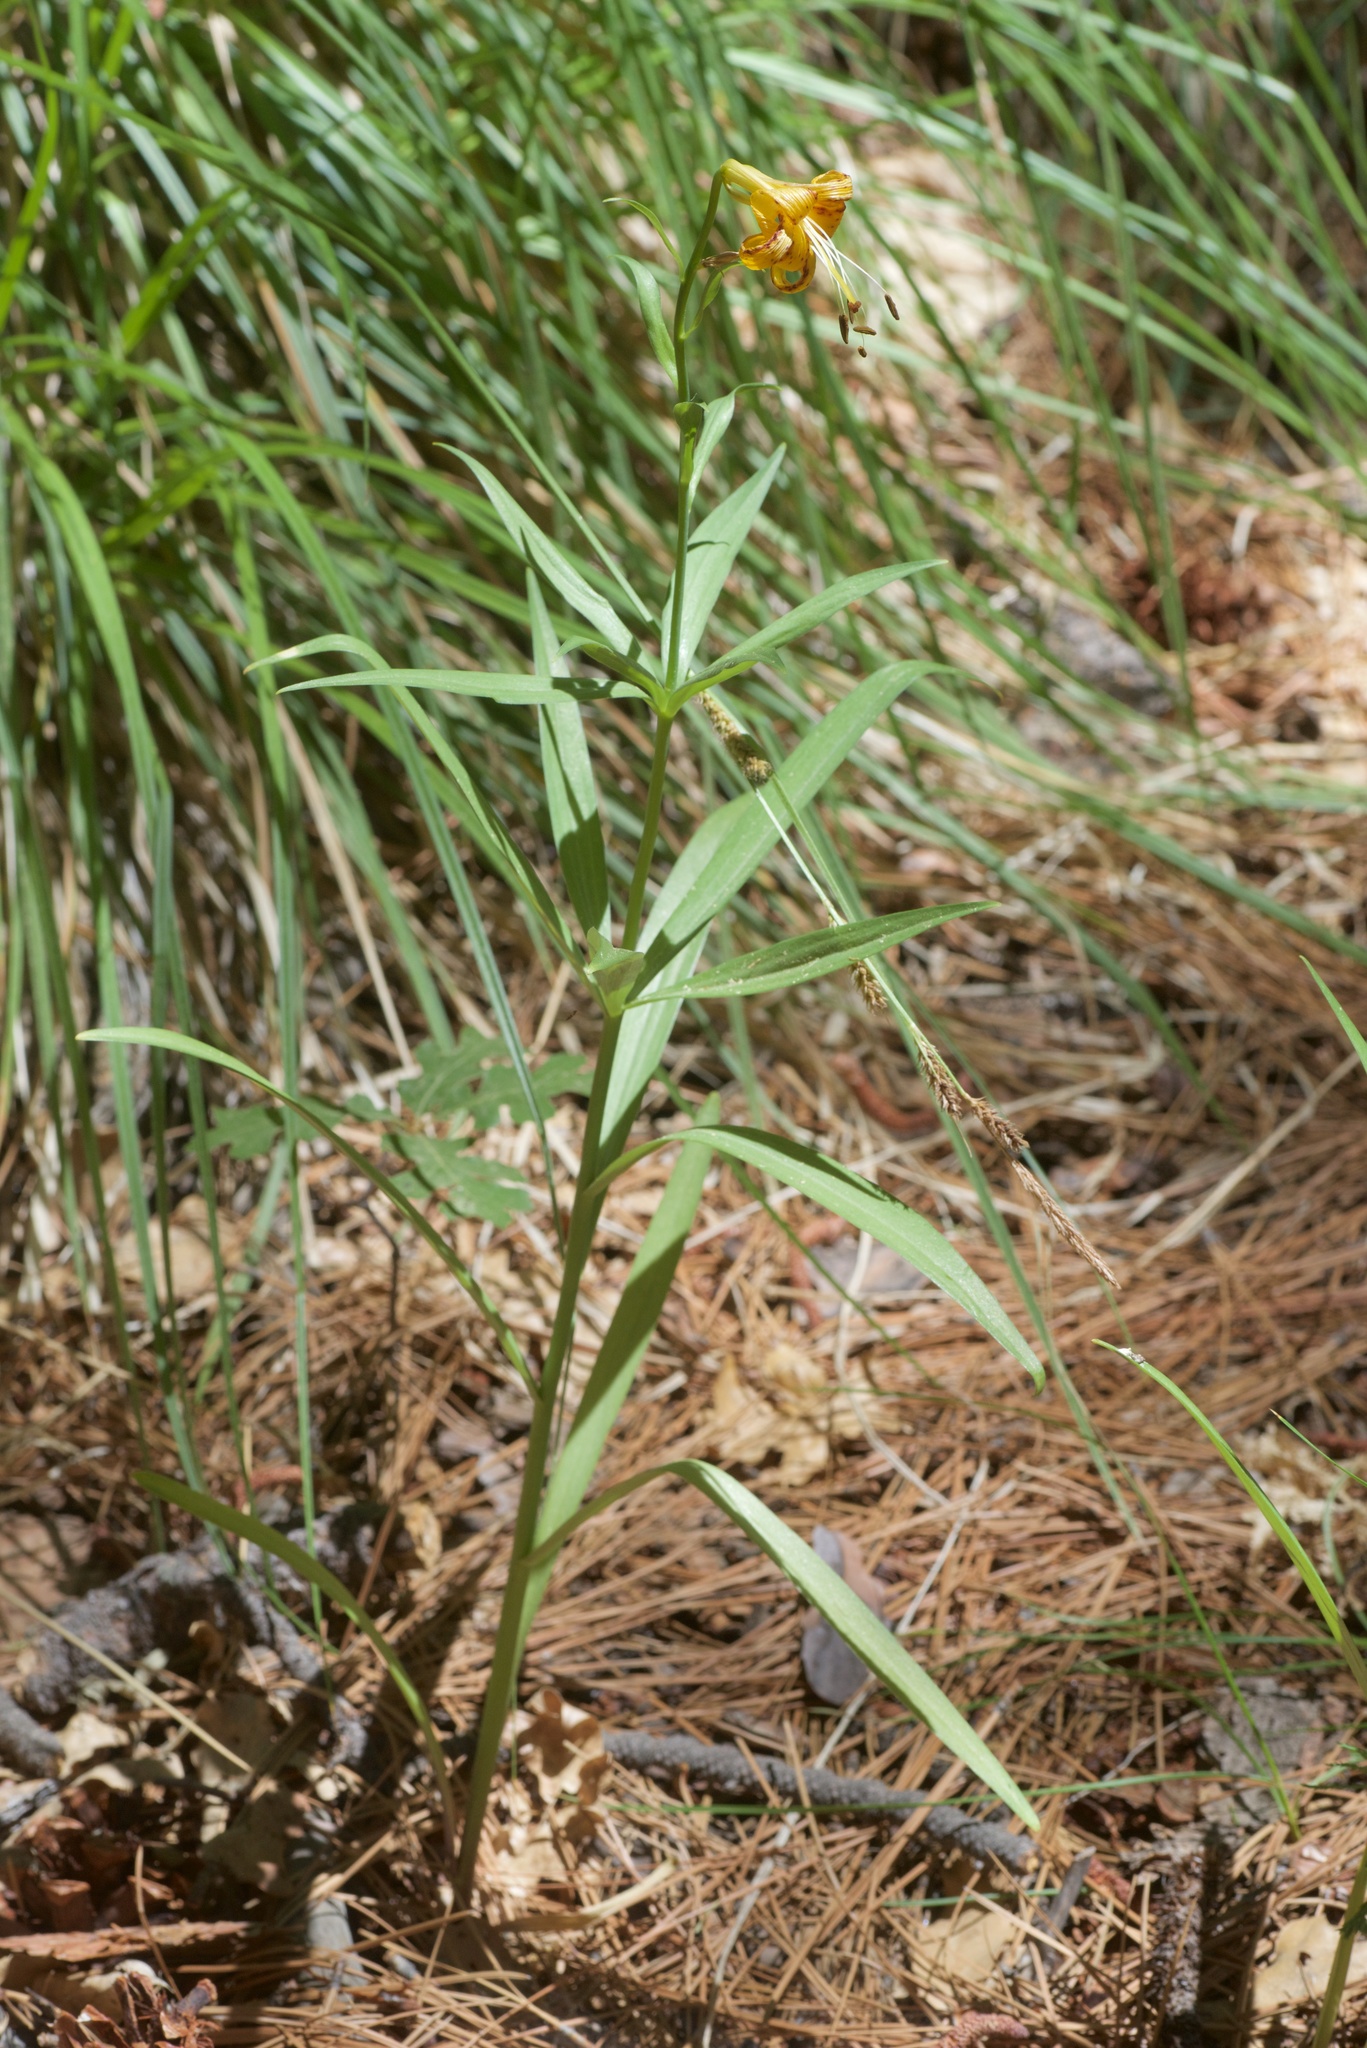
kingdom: Plantae
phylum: Tracheophyta
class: Liliopsida
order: Liliales
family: Liliaceae
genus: Lilium
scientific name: Lilium parryi
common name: Lemon lily
